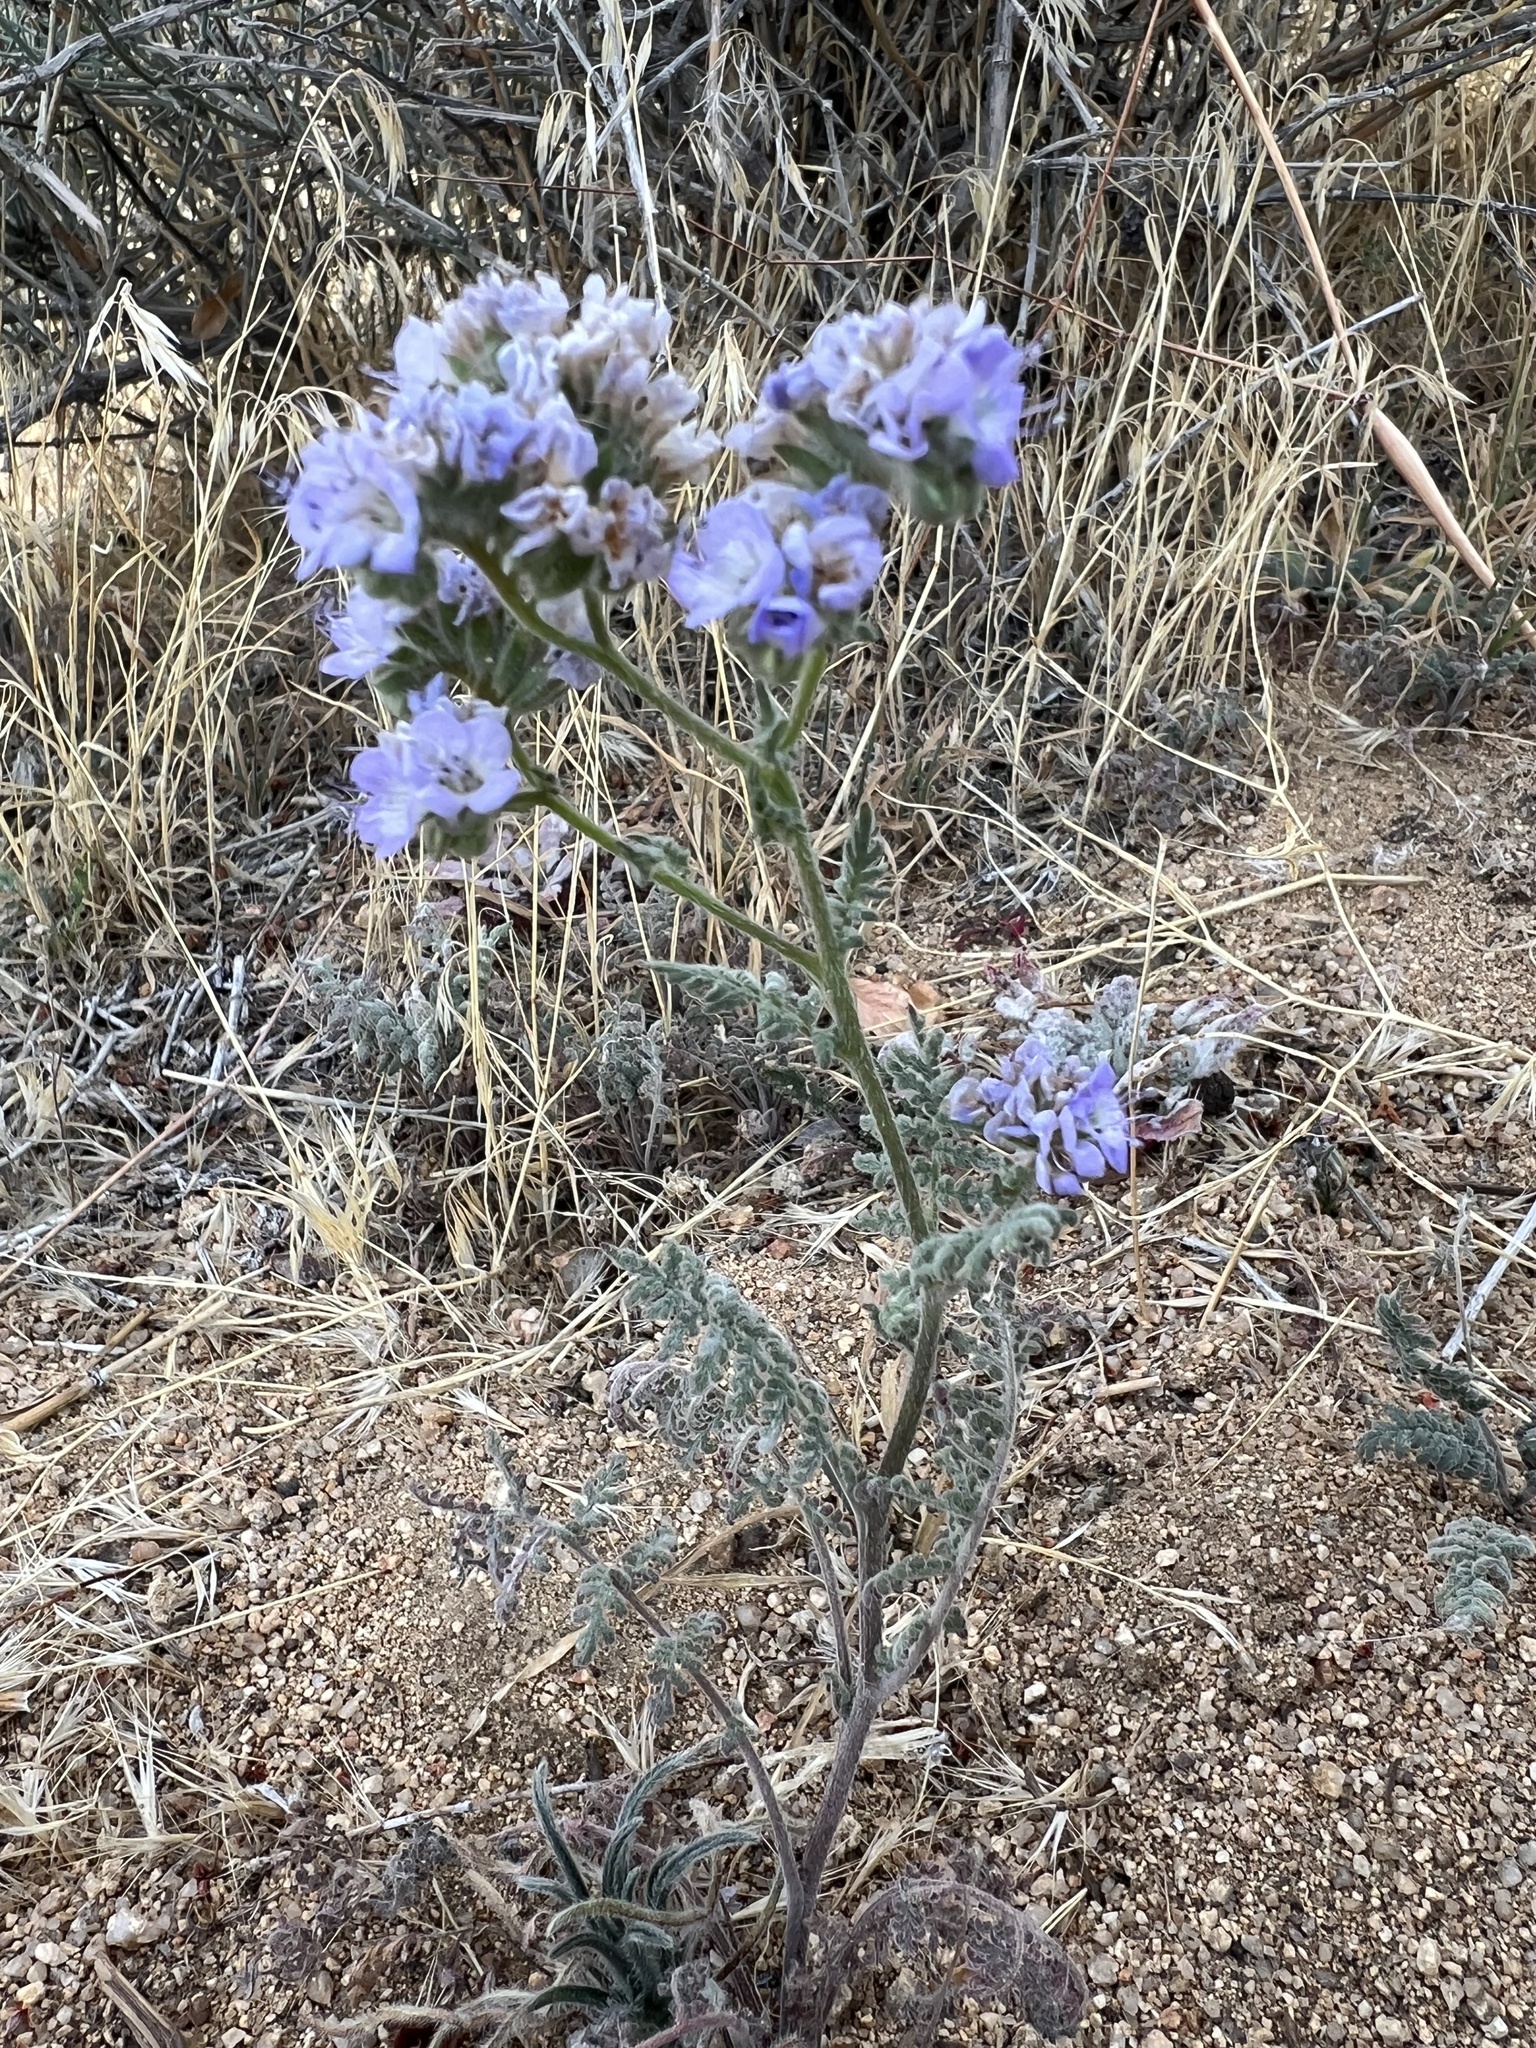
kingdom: Plantae
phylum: Tracheophyta
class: Magnoliopsida
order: Boraginales
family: Hydrophyllaceae
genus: Phacelia
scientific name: Phacelia distans
